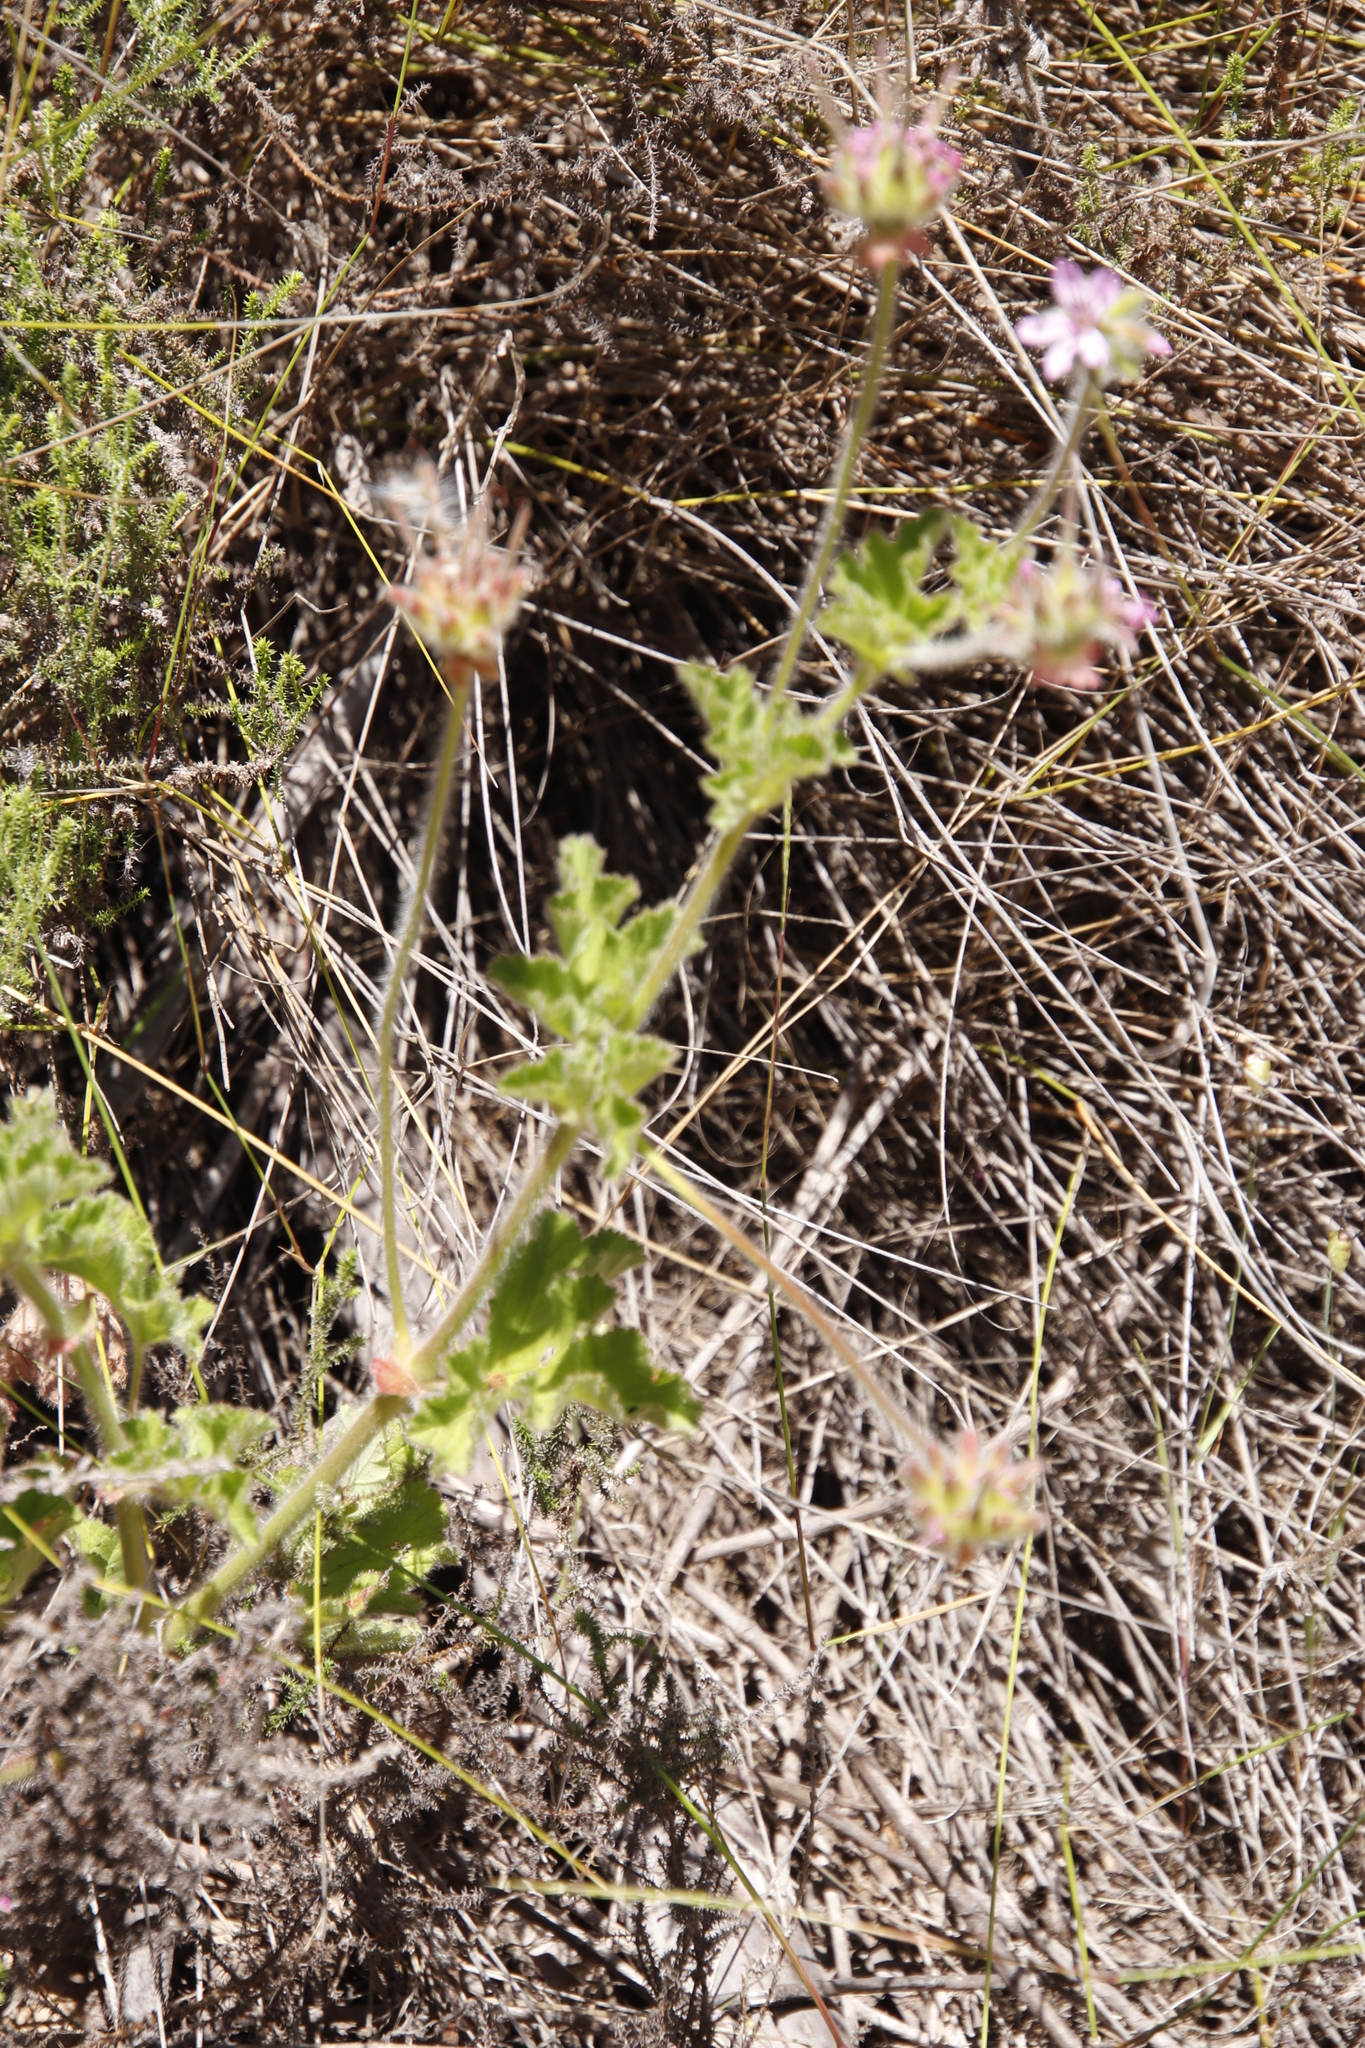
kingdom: Plantae
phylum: Tracheophyta
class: Magnoliopsida
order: Geraniales
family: Geraniaceae
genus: Pelargonium
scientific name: Pelargonium capitatum
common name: Rose scented geranium
